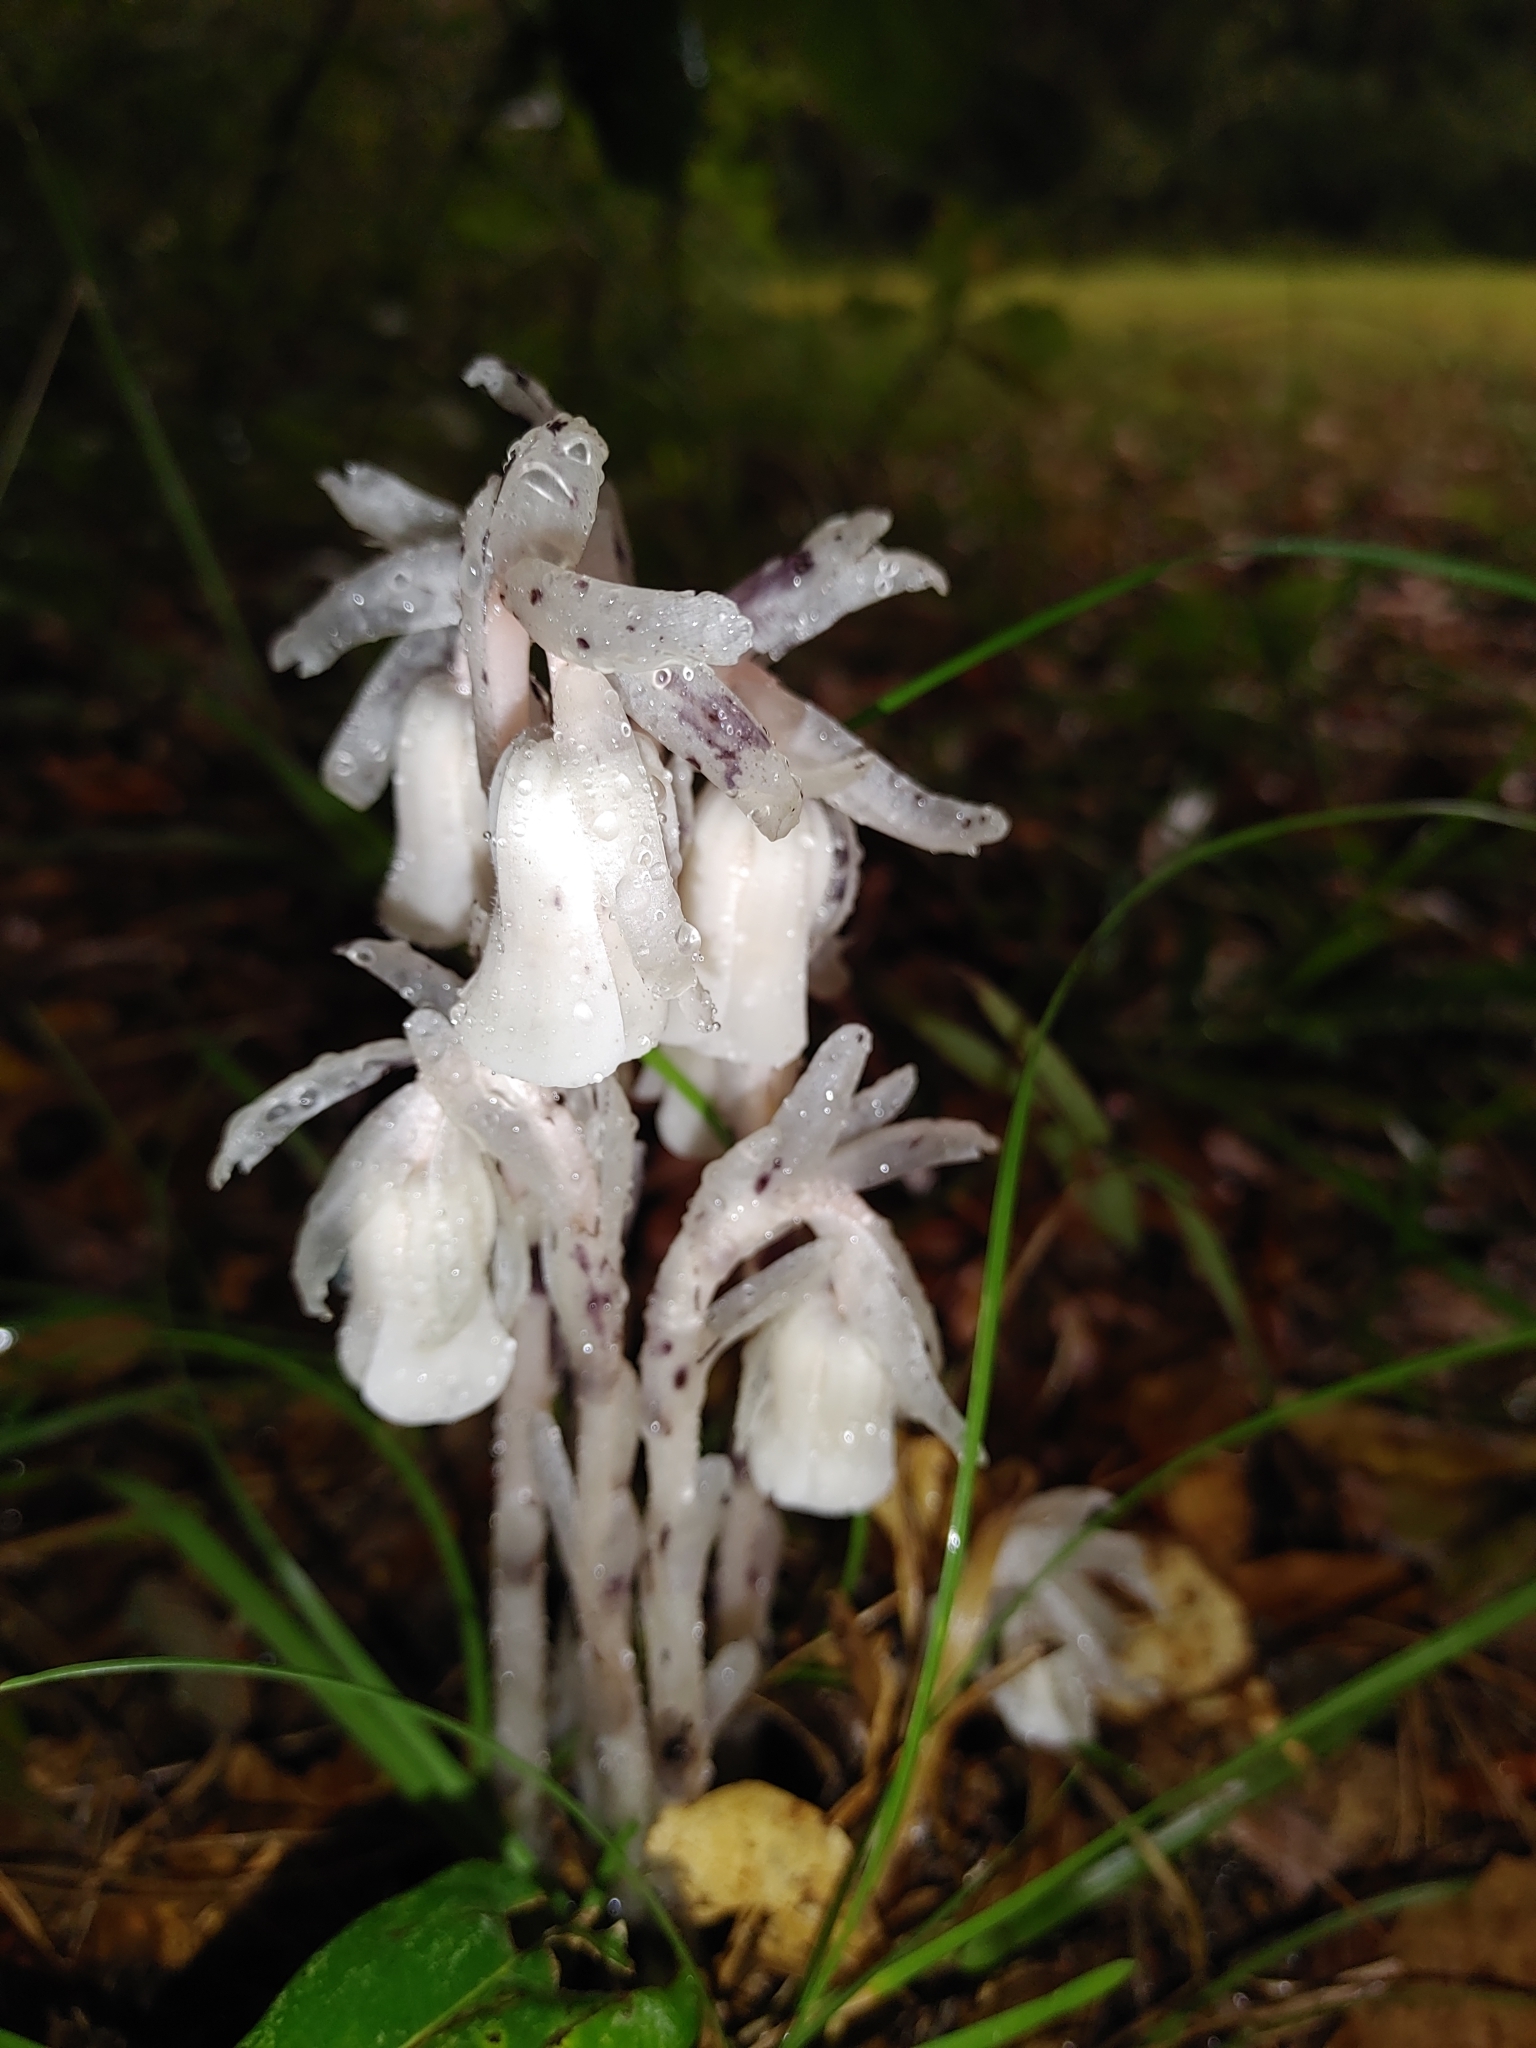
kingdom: Plantae
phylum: Tracheophyta
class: Magnoliopsida
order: Ericales
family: Ericaceae
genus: Monotropa
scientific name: Monotropa uniflora
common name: Convulsion root
